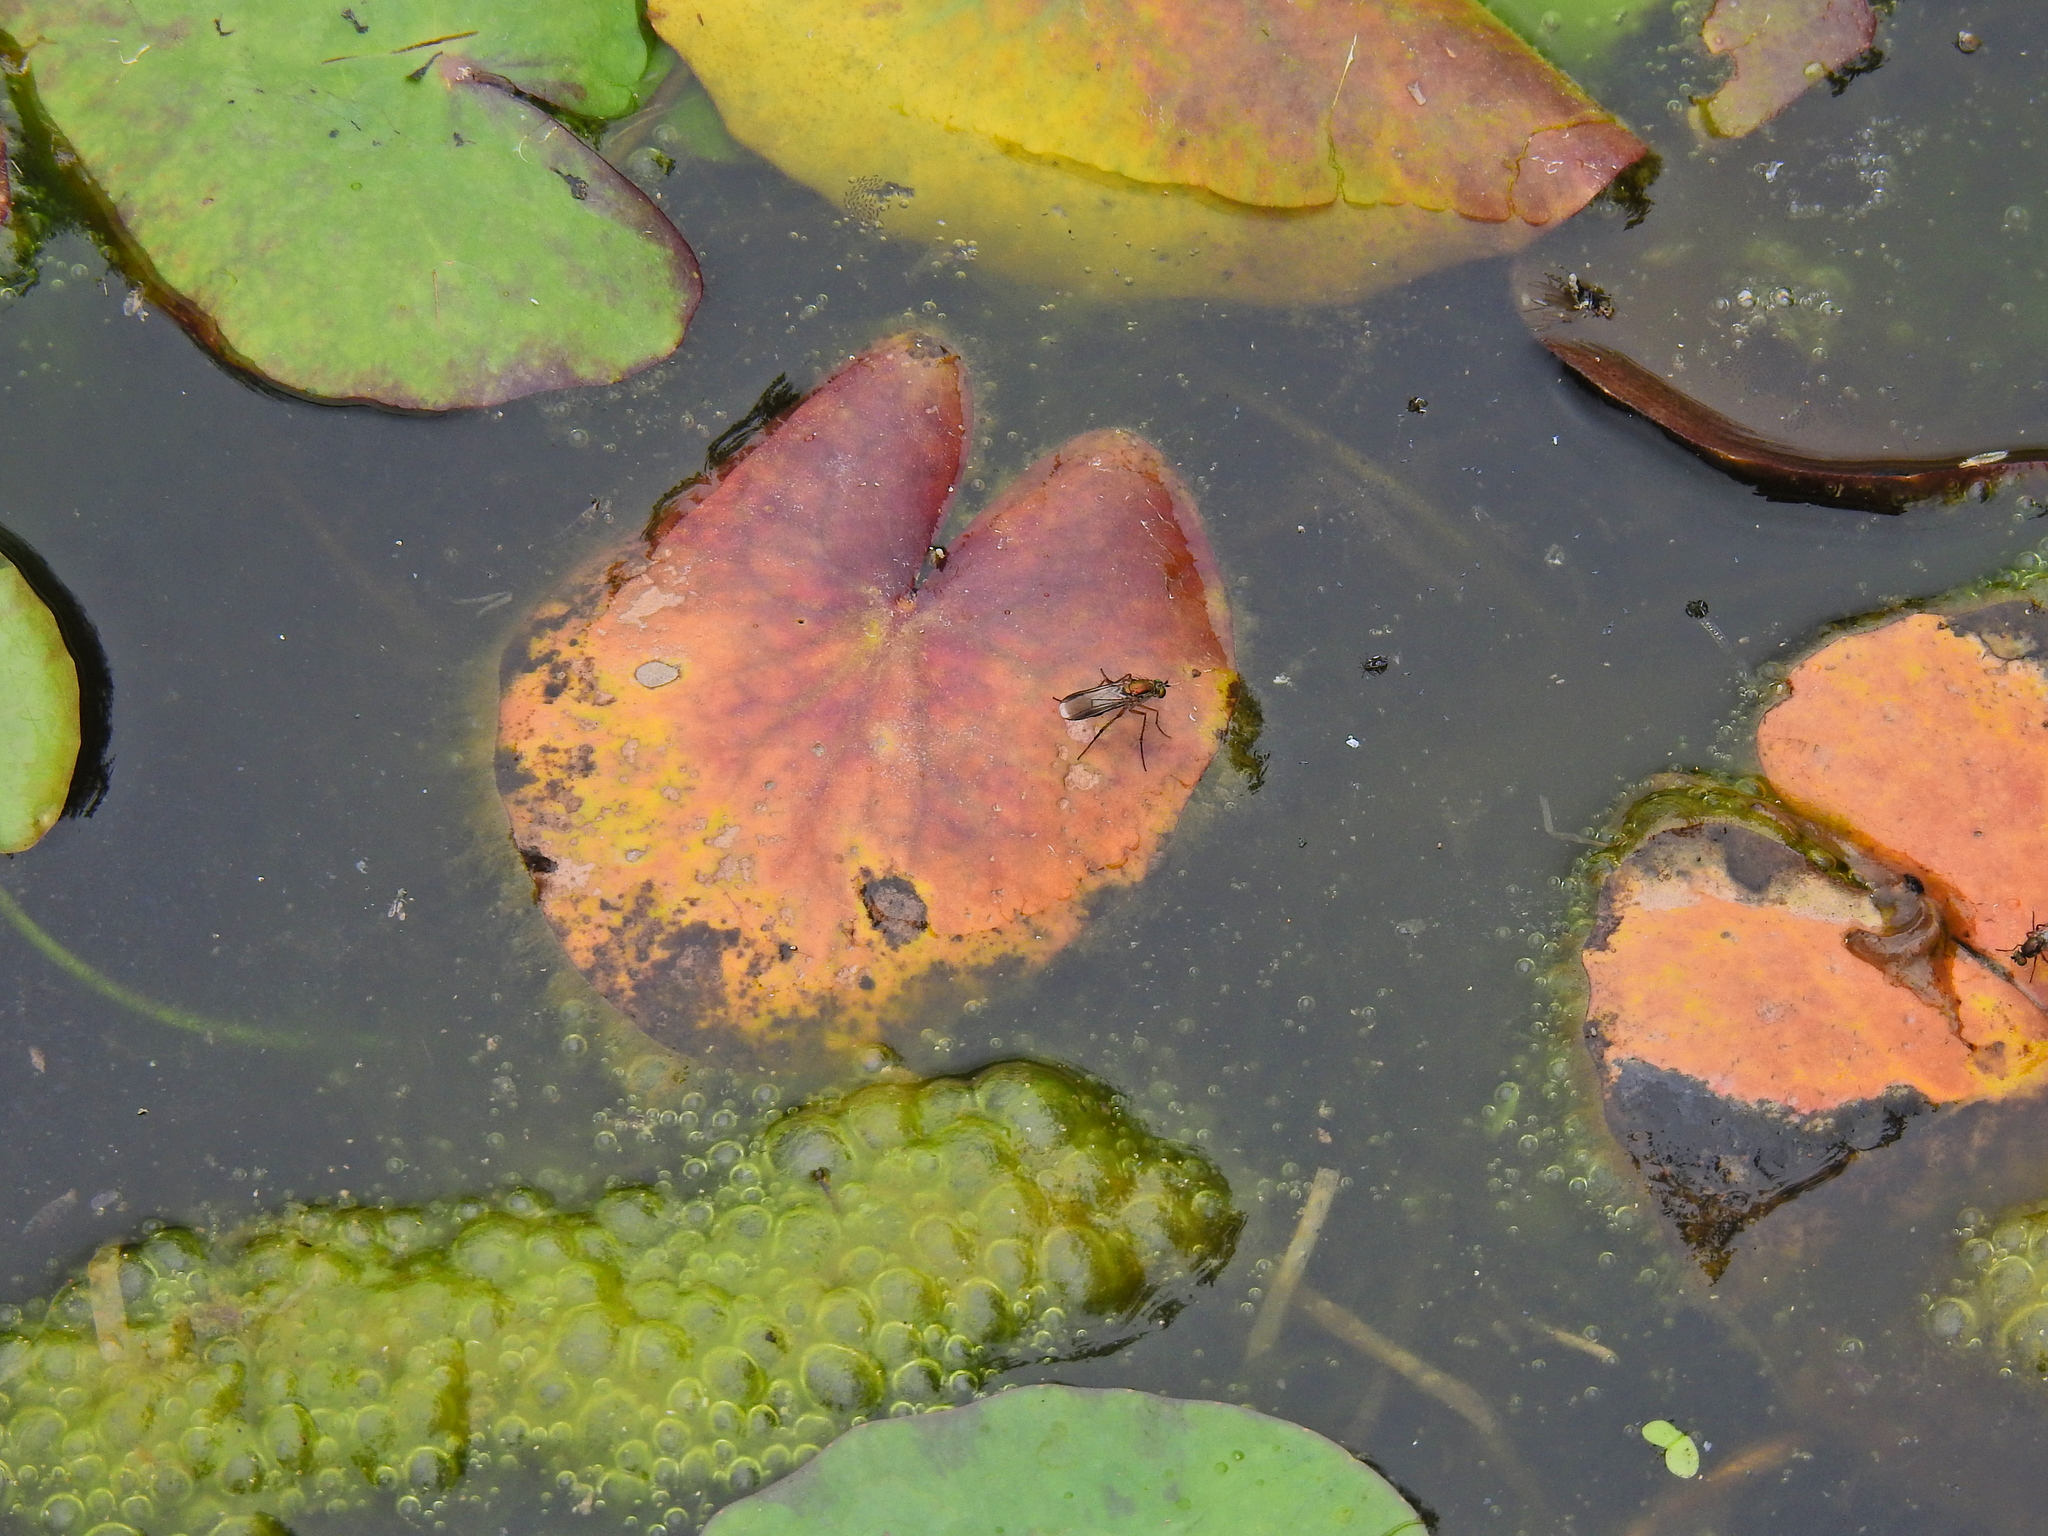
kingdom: Animalia
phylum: Arthropoda
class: Insecta
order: Diptera
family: Dolichopodidae
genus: Poecilobothrus
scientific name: Poecilobothrus nobilitatus
